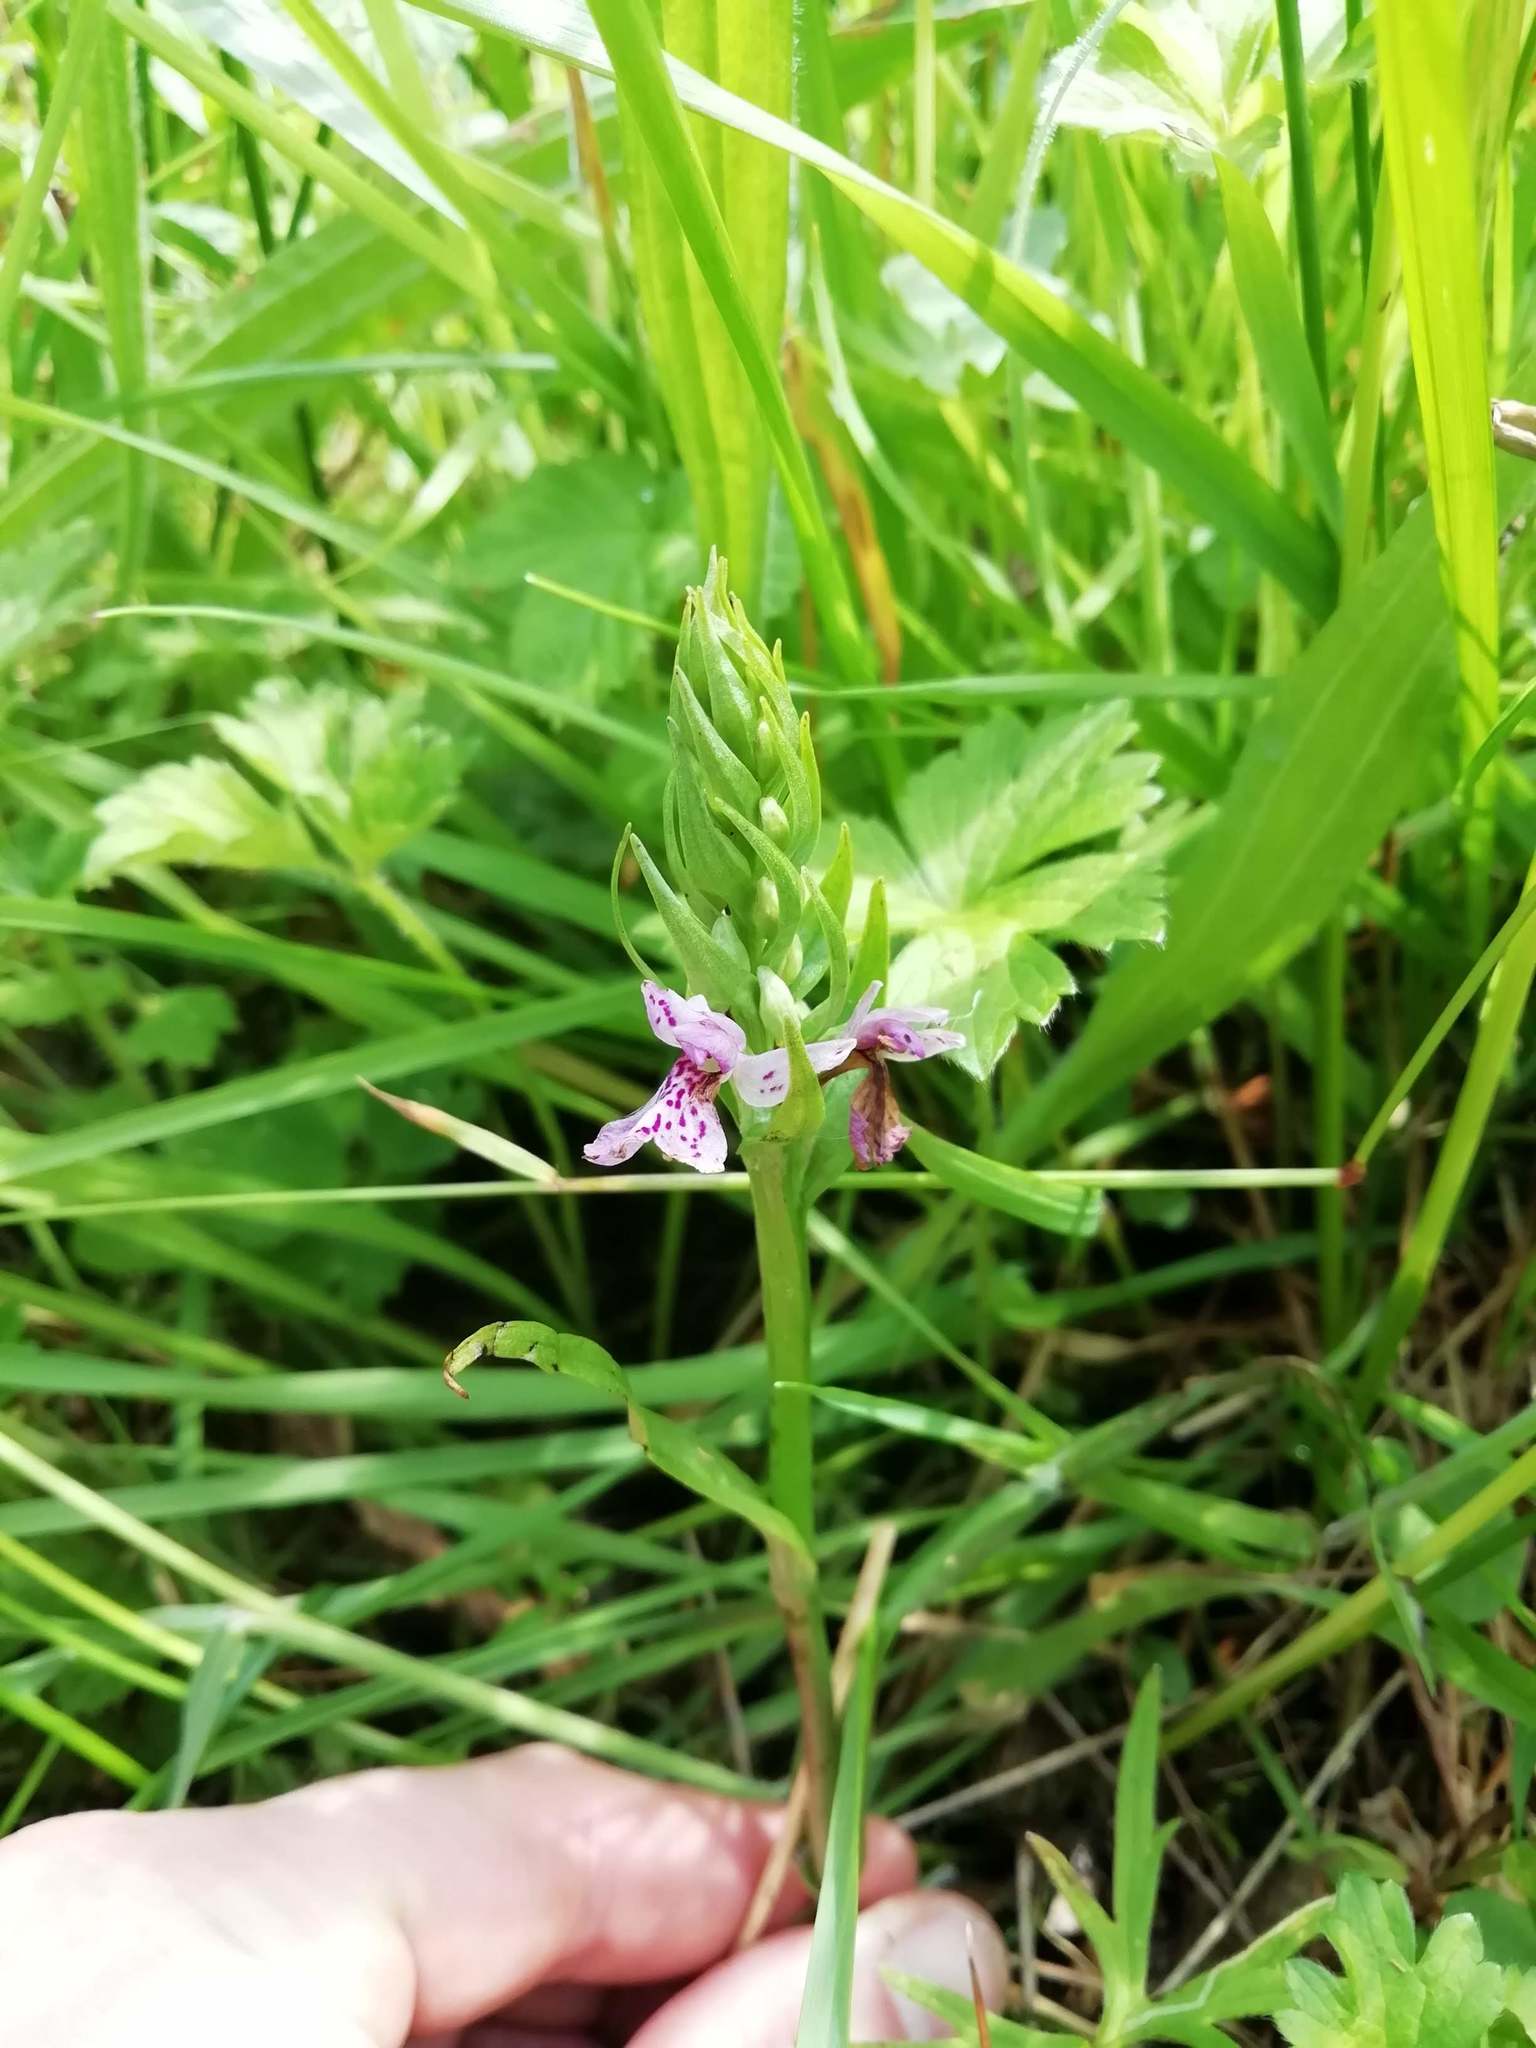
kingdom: Plantae
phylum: Tracheophyta
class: Liliopsida
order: Asparagales
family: Orchidaceae
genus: Dactylorhiza
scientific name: Dactylorhiza maculata
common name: Heath spotted-orchid
